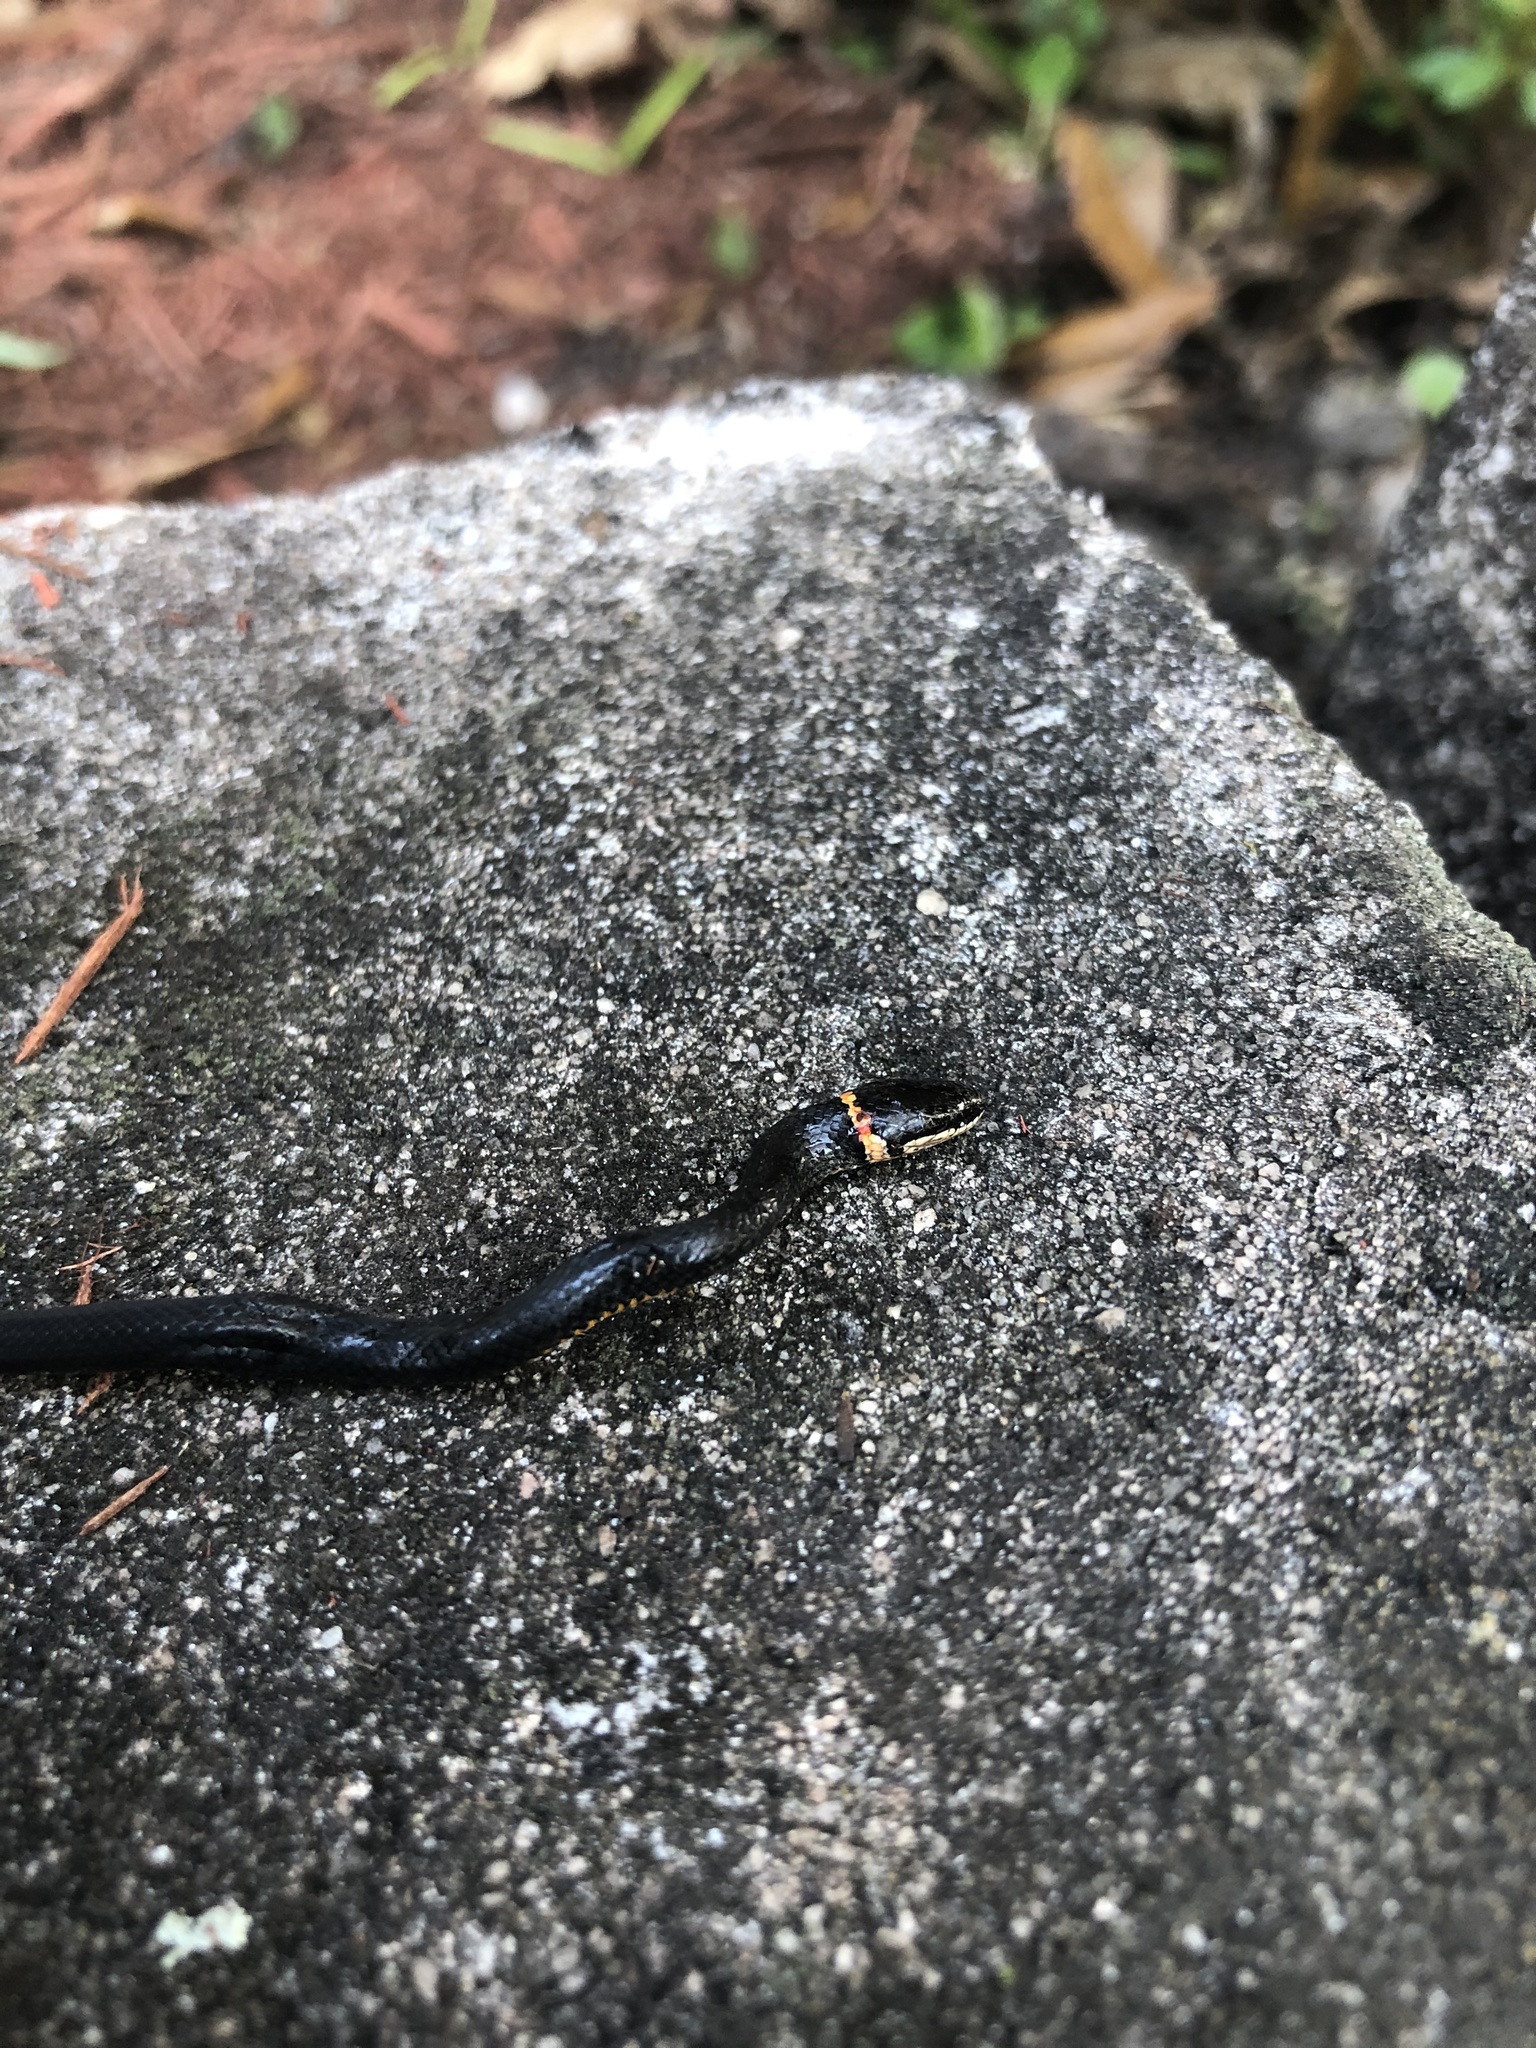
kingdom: Animalia
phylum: Chordata
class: Squamata
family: Colubridae
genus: Diadophis
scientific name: Diadophis punctatus
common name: Ringneck snake
